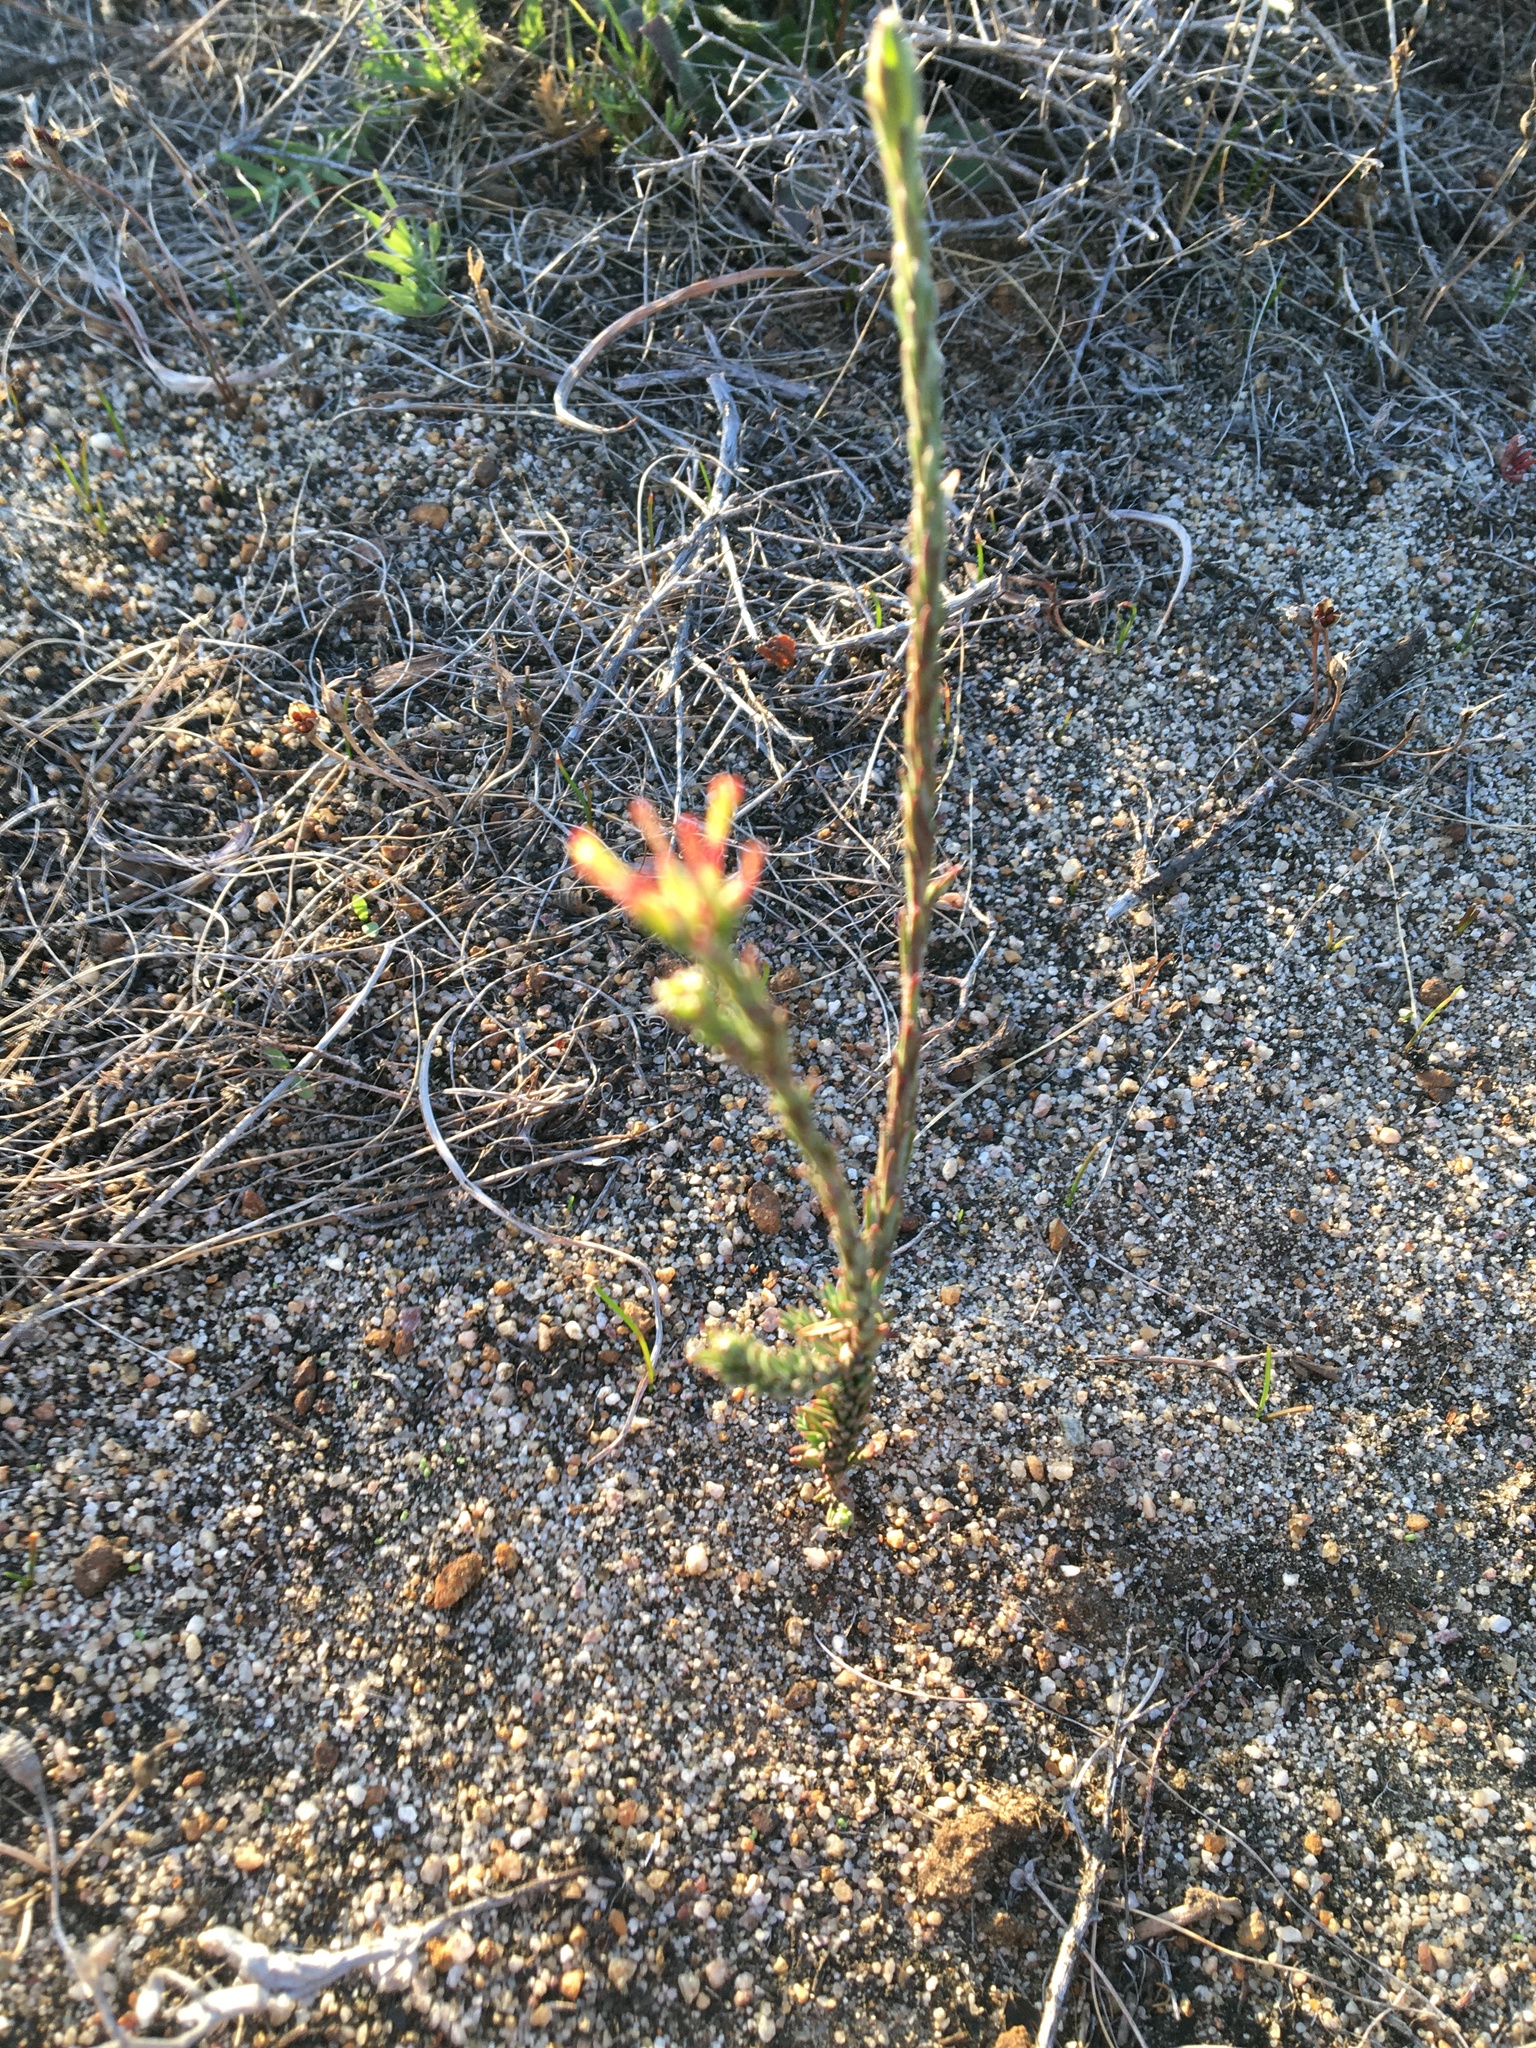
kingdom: Plantae
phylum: Tracheophyta
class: Magnoliopsida
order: Malvales
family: Thymelaeaceae
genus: Gnidia
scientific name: Gnidia laxa
